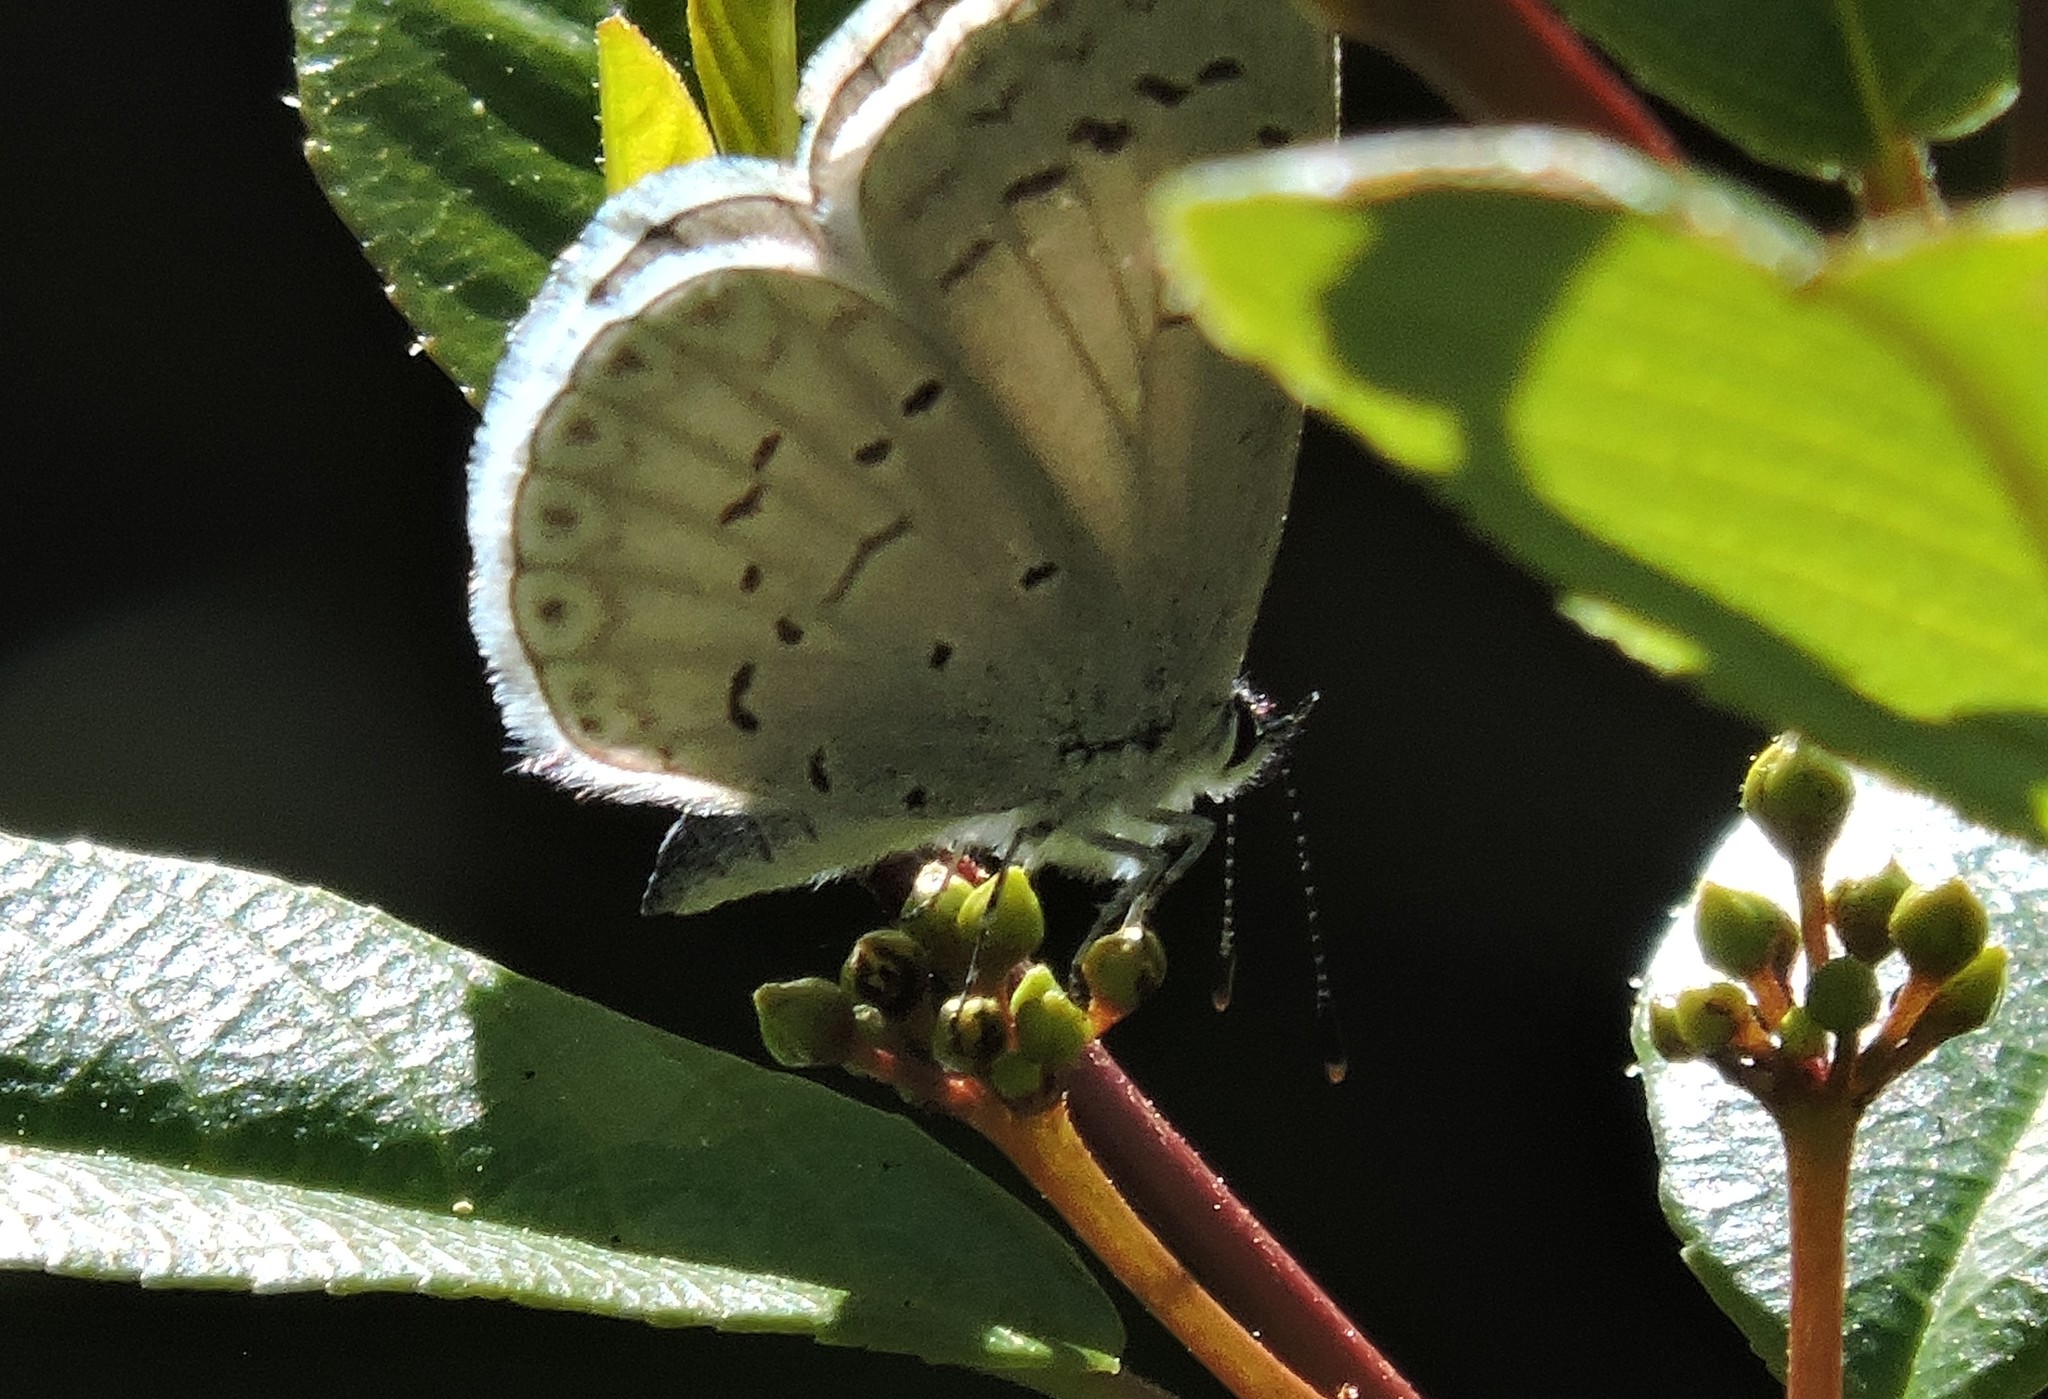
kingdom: Animalia
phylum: Arthropoda
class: Insecta
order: Lepidoptera
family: Lycaenidae
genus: Celastrina
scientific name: Celastrina ladon
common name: Spring azure
